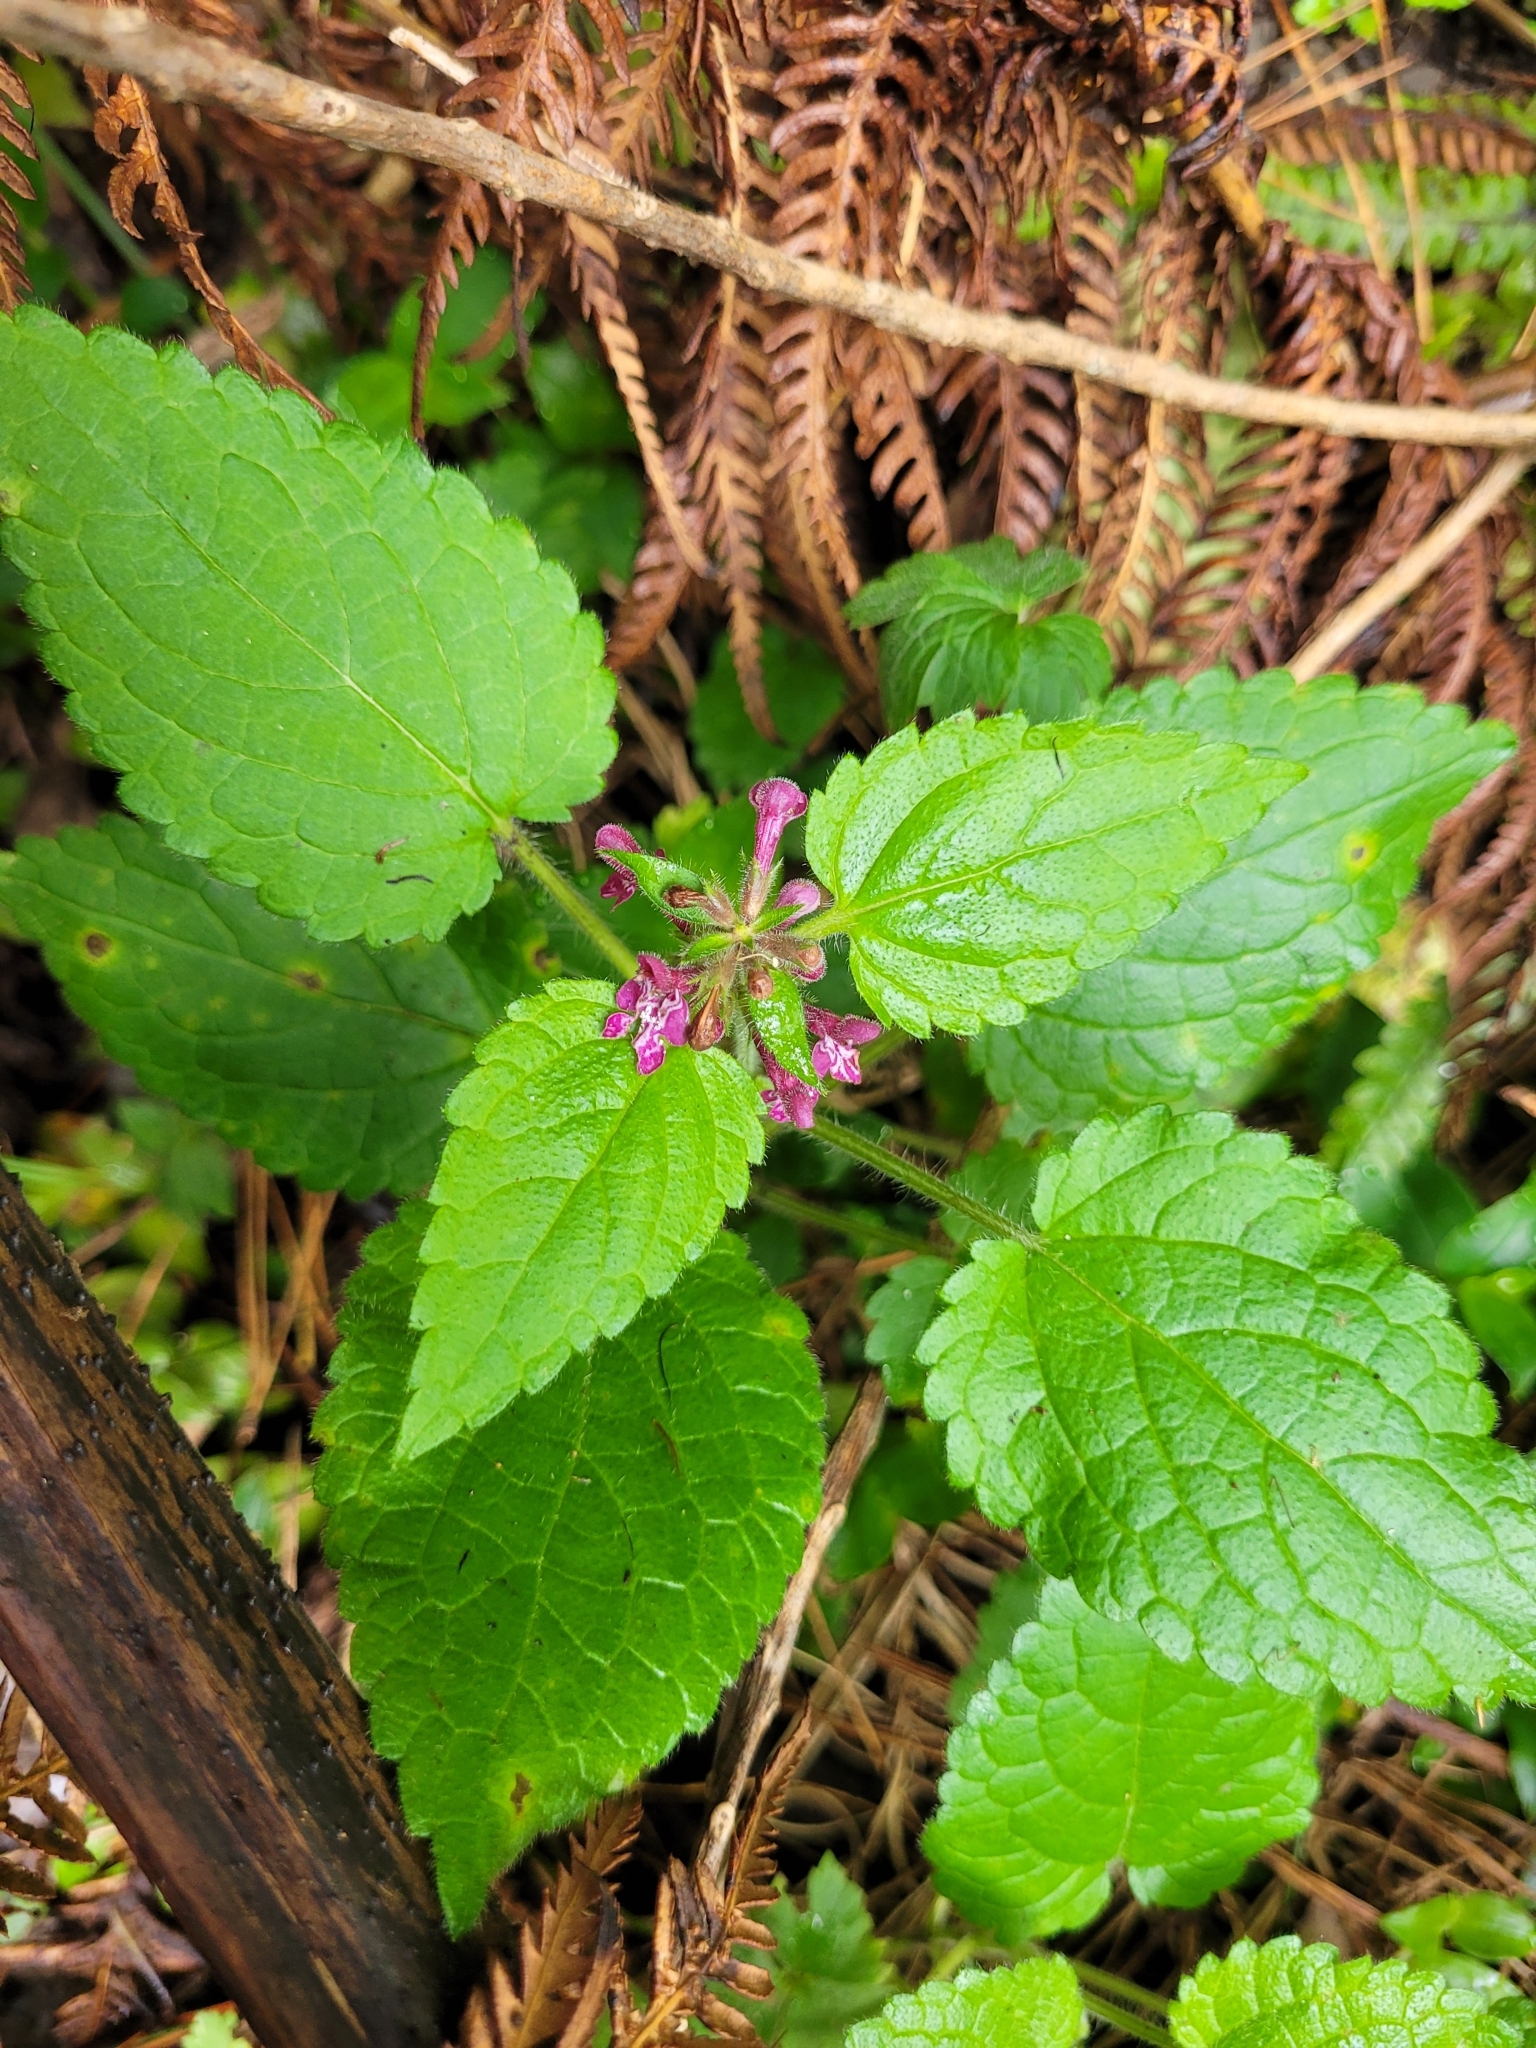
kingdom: Plantae
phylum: Tracheophyta
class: Magnoliopsida
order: Lamiales
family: Lamiaceae
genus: Stachys
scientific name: Stachys sylvatica
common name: Hedge woundwort
